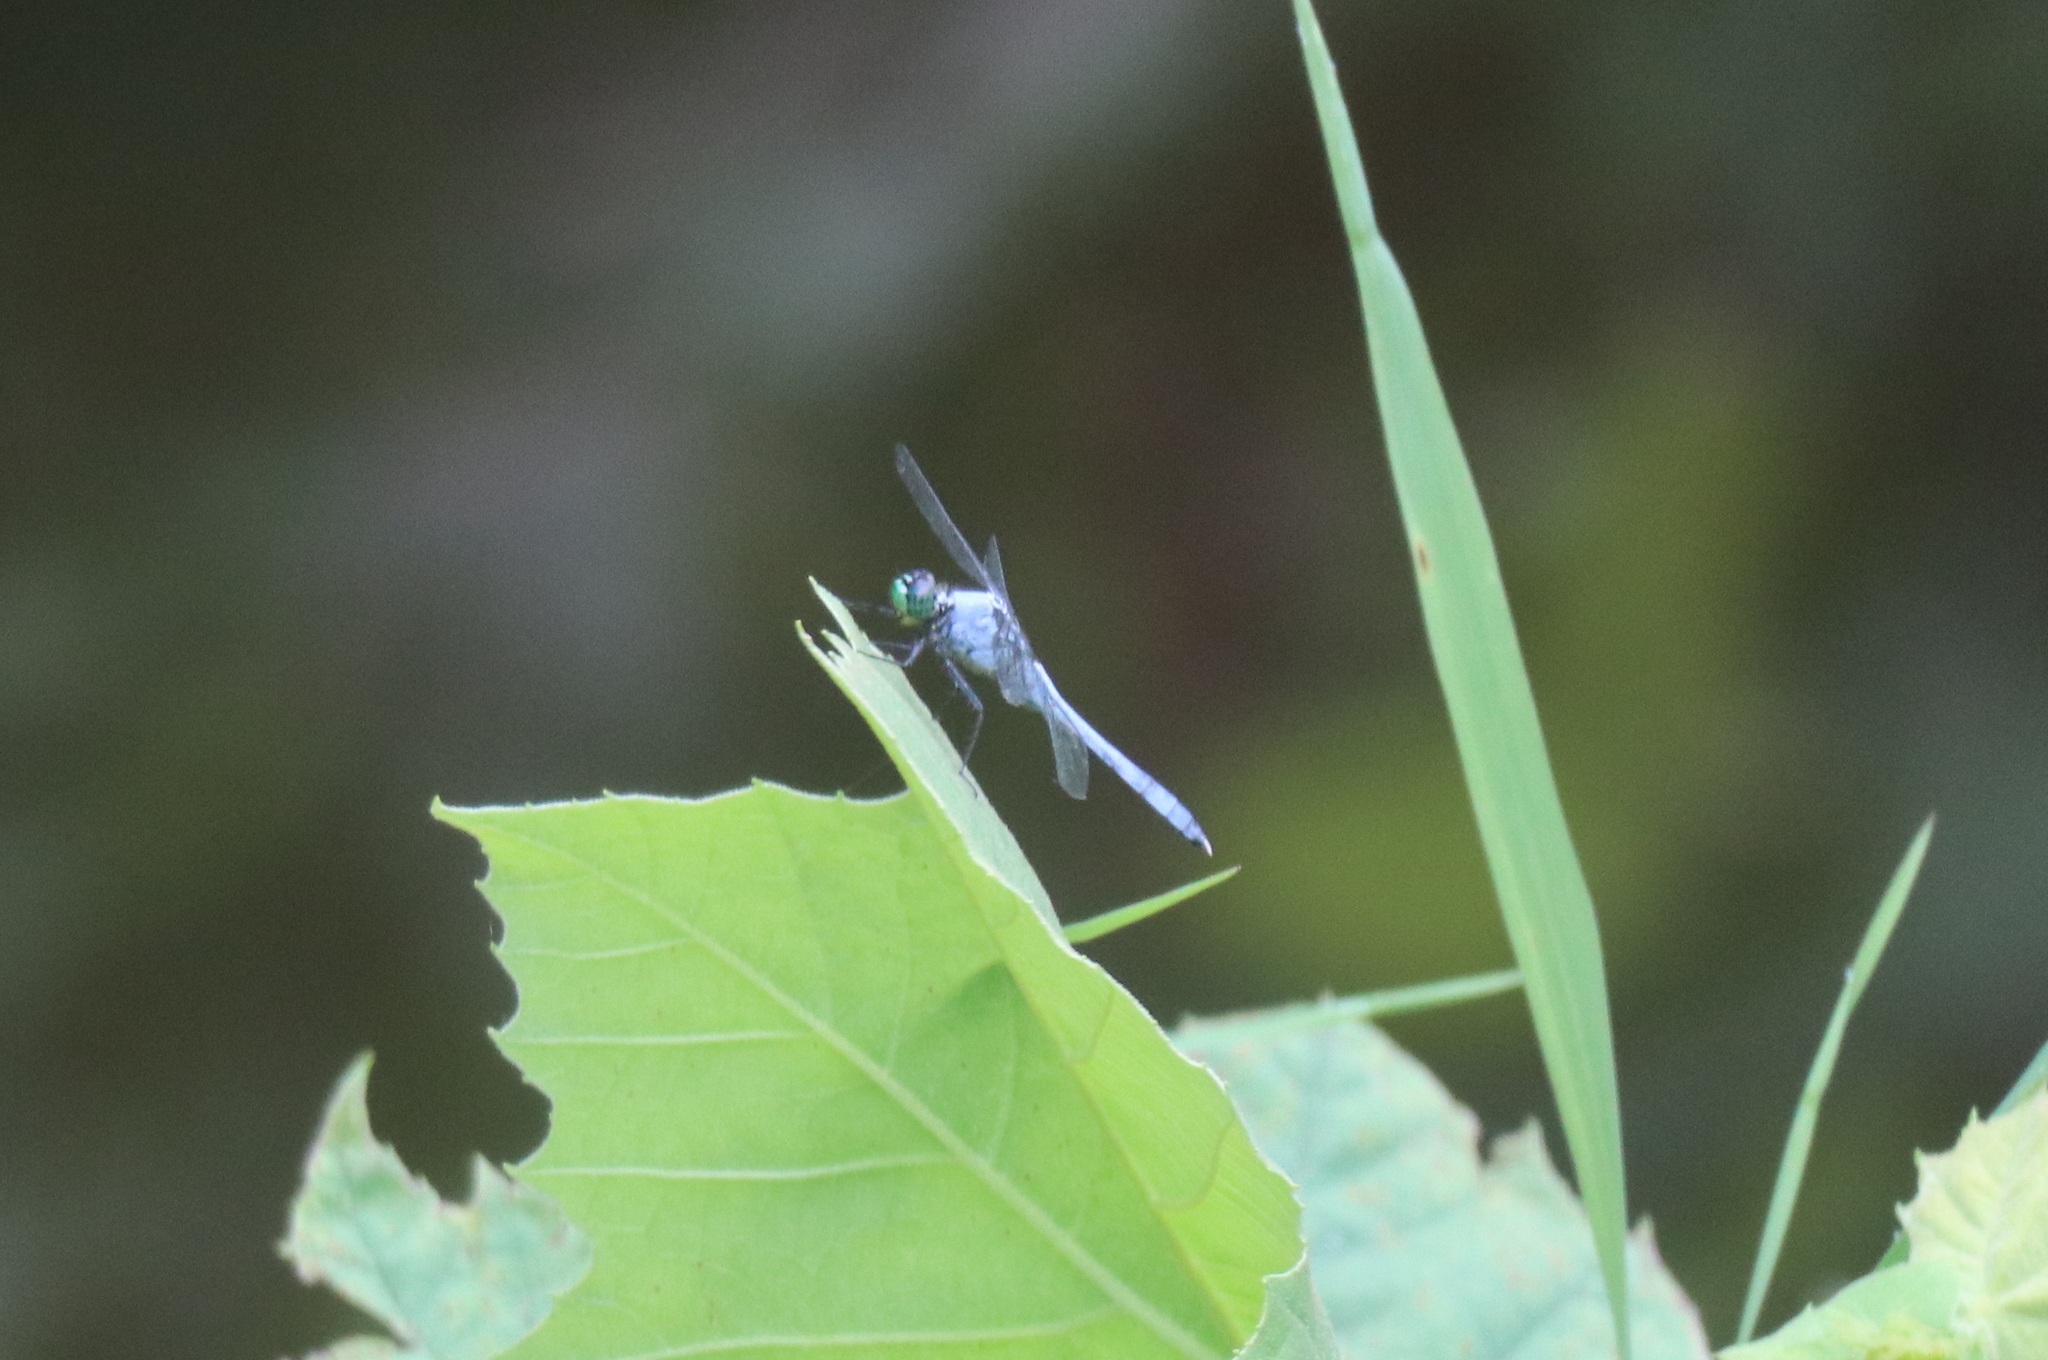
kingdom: Animalia
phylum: Arthropoda
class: Insecta
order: Odonata
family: Libellulidae
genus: Erythemis
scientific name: Erythemis simplicicollis
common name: Eastern pondhawk
